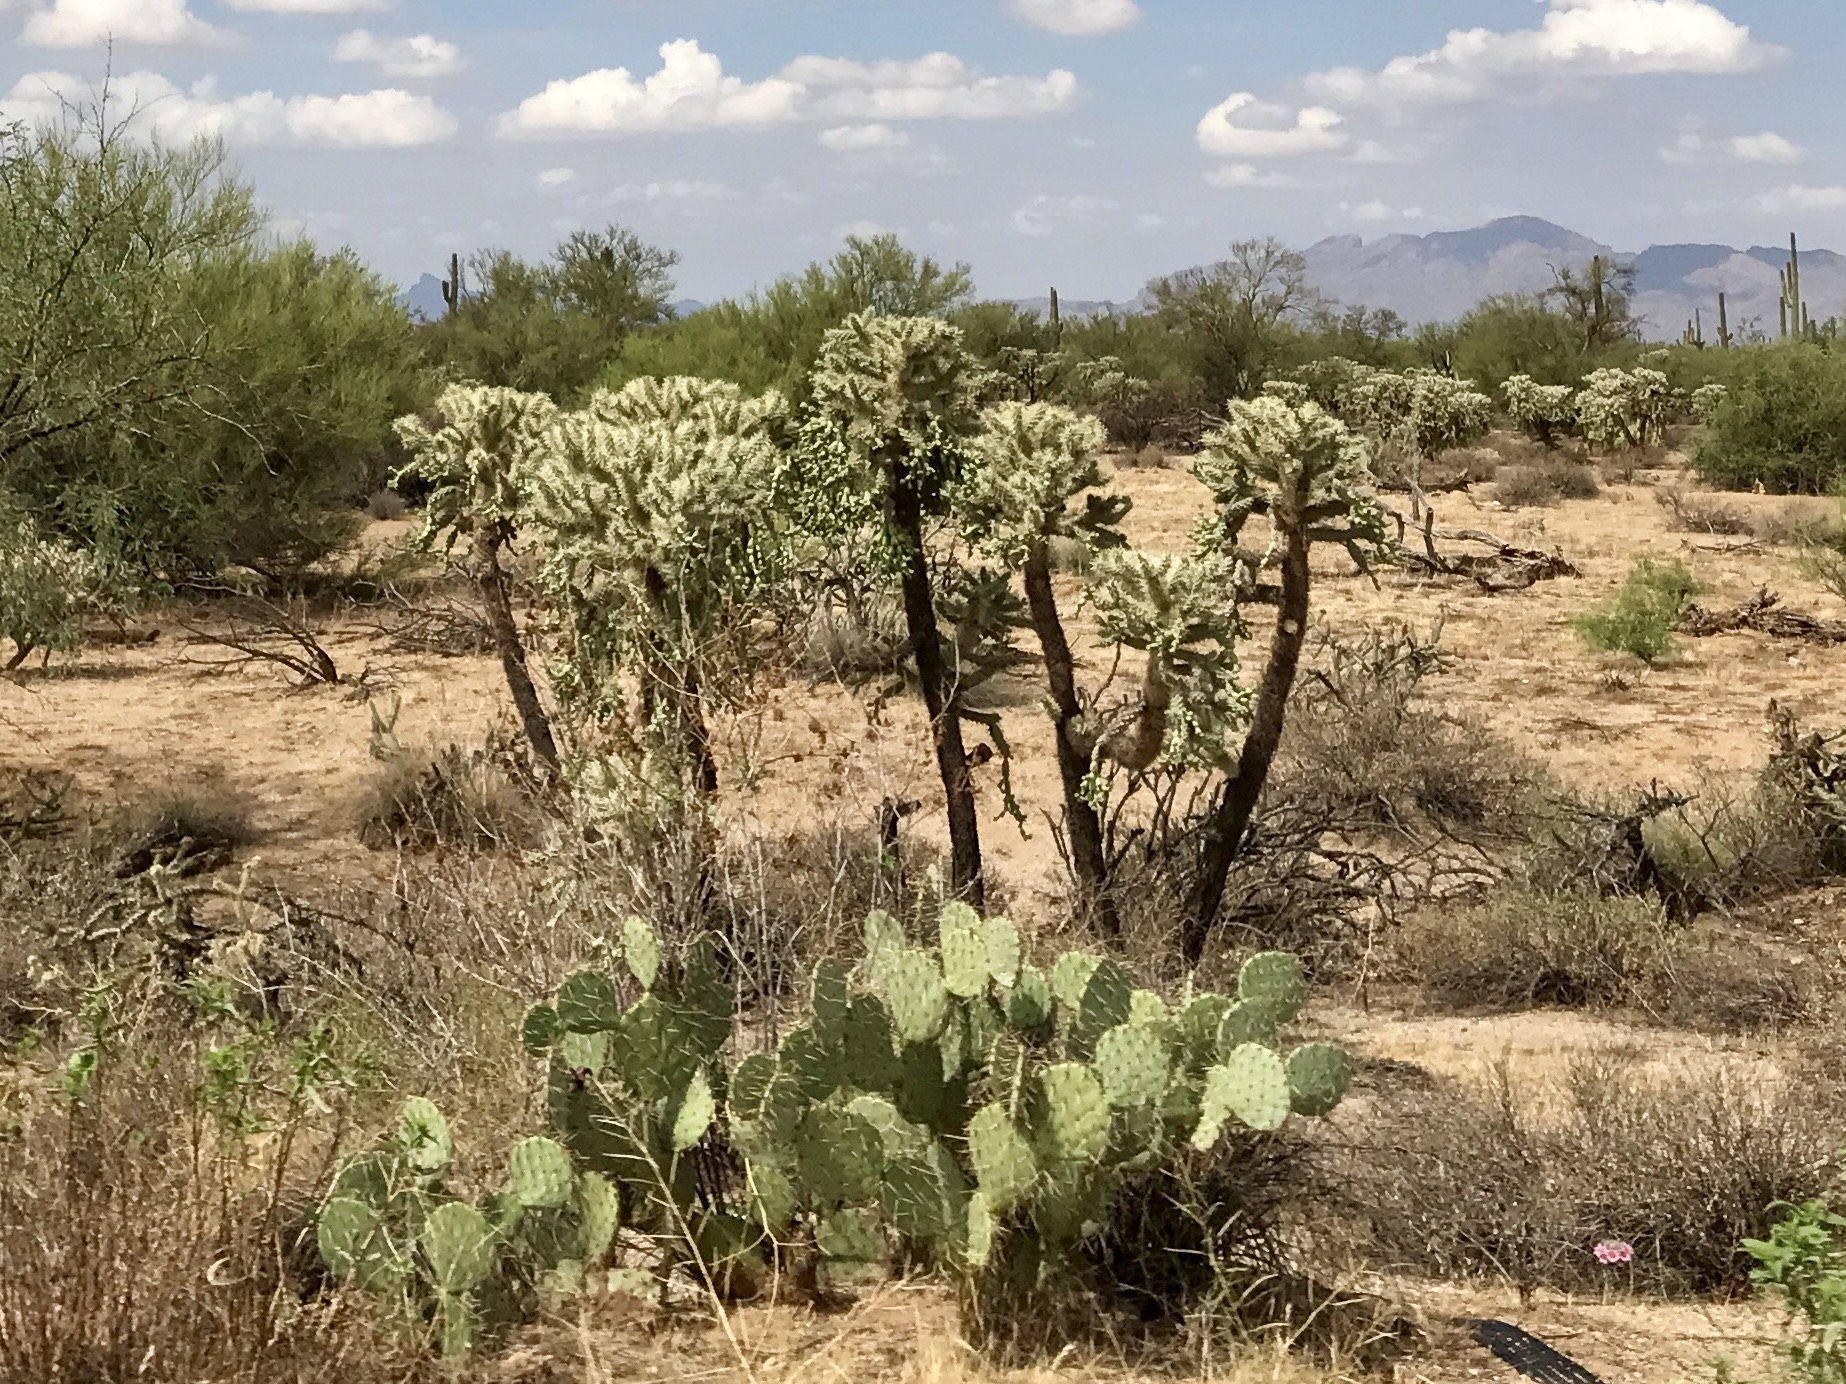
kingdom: Plantae
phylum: Tracheophyta
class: Magnoliopsida
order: Caryophyllales
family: Cactaceae
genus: Cylindropuntia
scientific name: Cylindropuntia fulgida
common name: Jumping cholla
